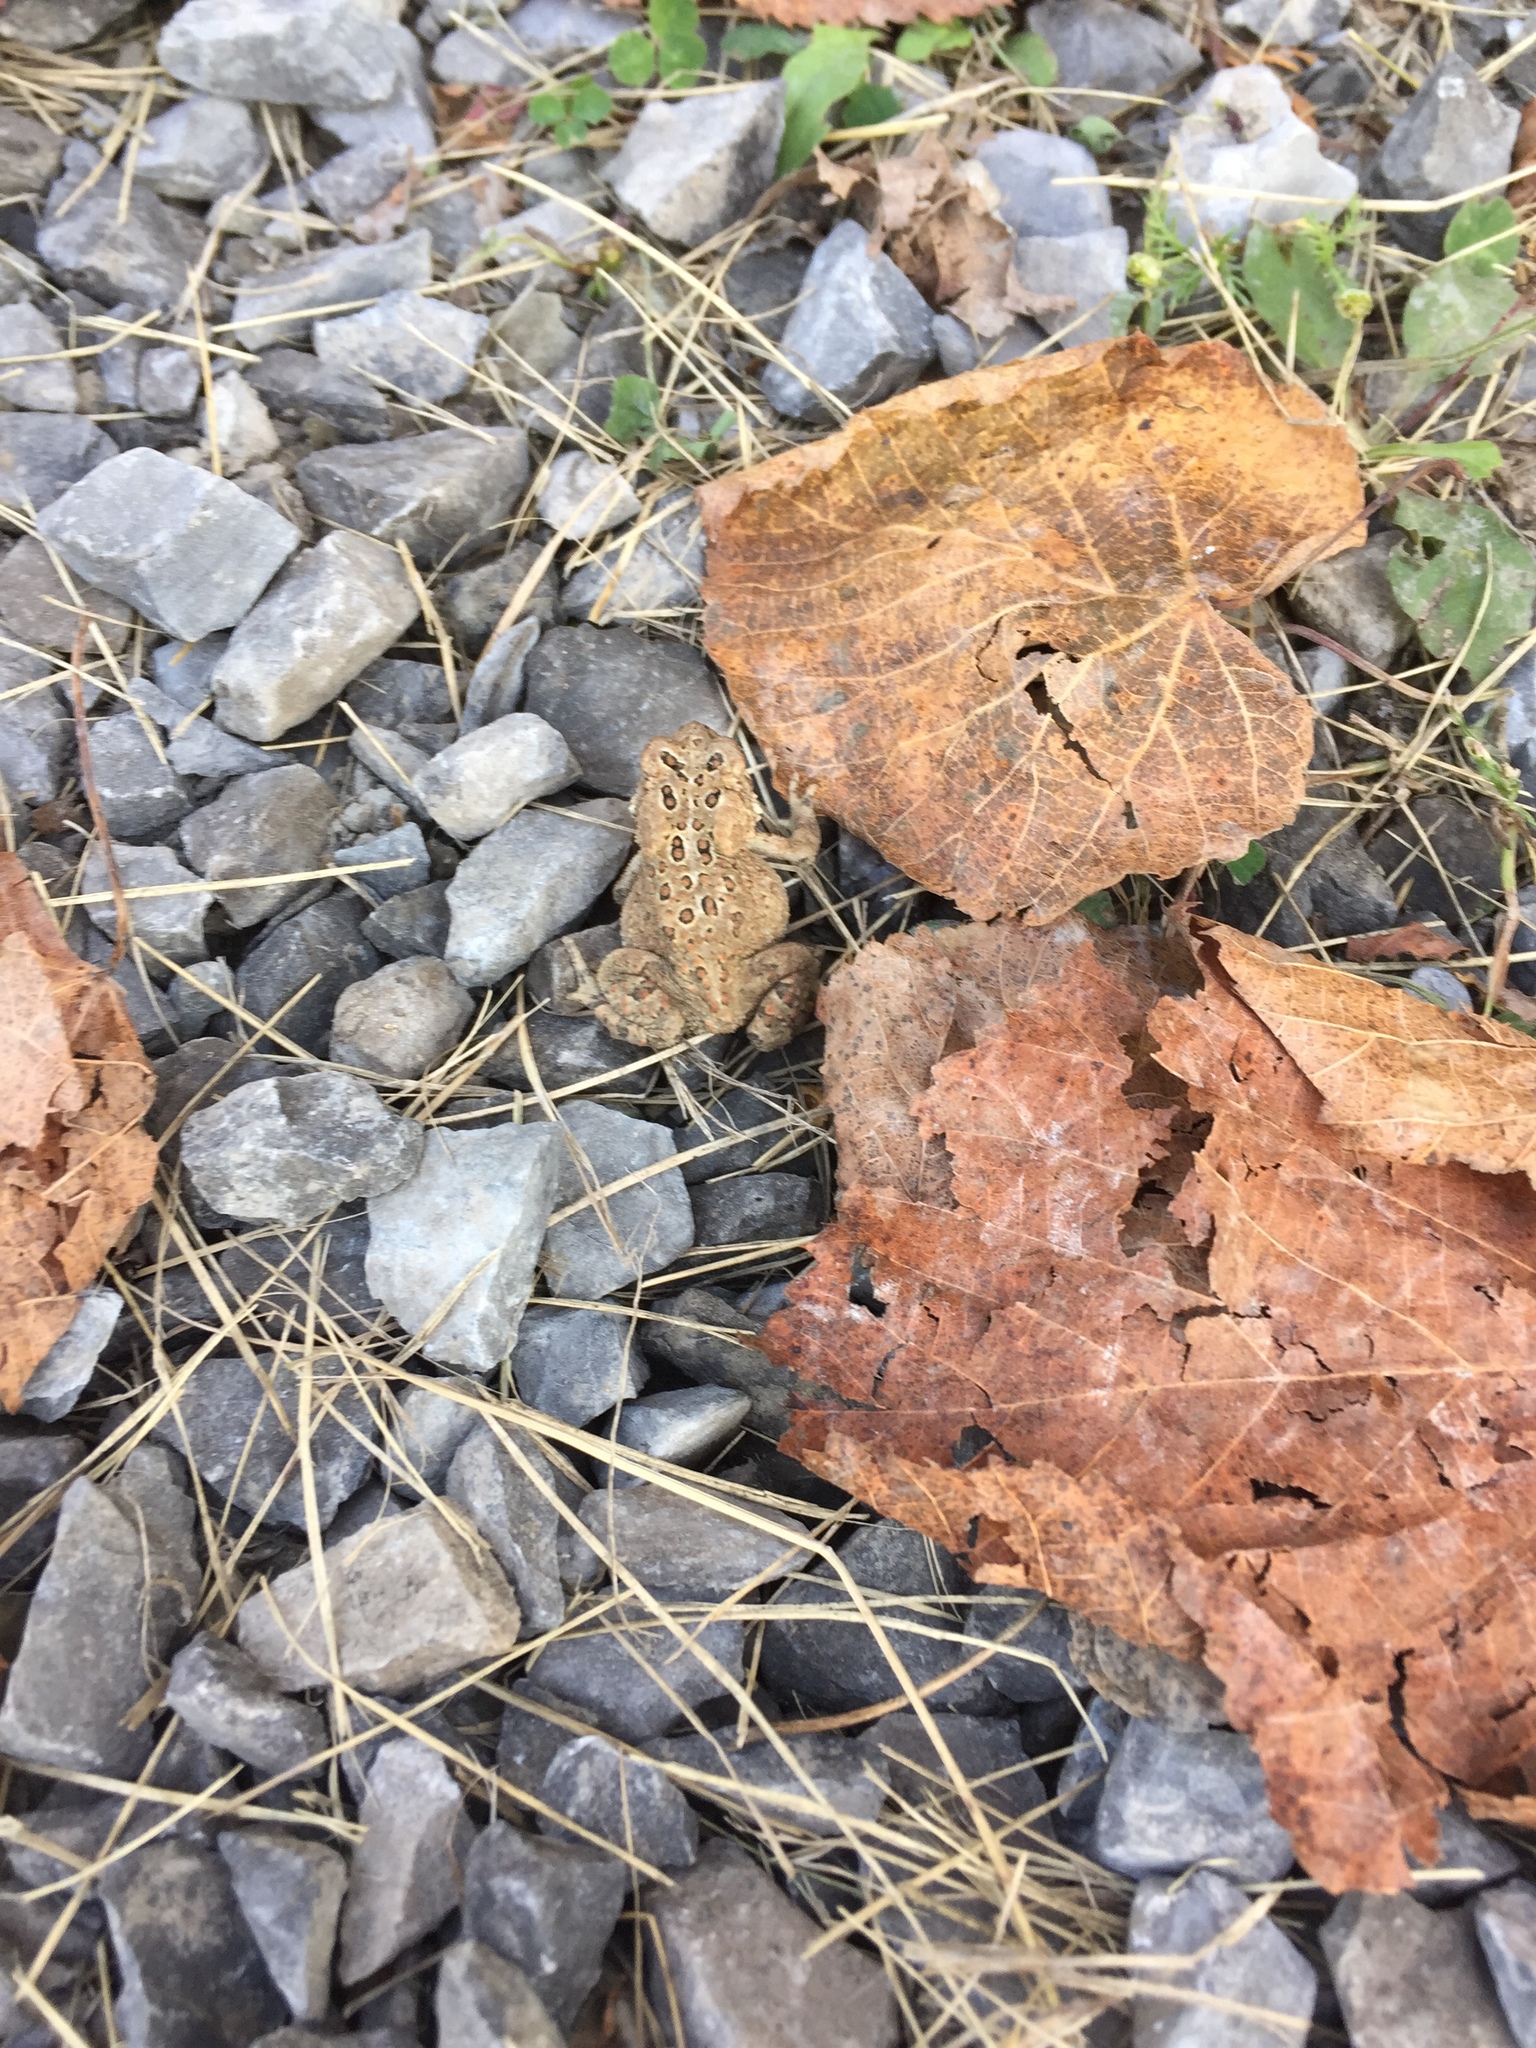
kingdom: Animalia
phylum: Chordata
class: Amphibia
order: Anura
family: Bufonidae
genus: Anaxyrus
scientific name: Anaxyrus americanus
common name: American toad
